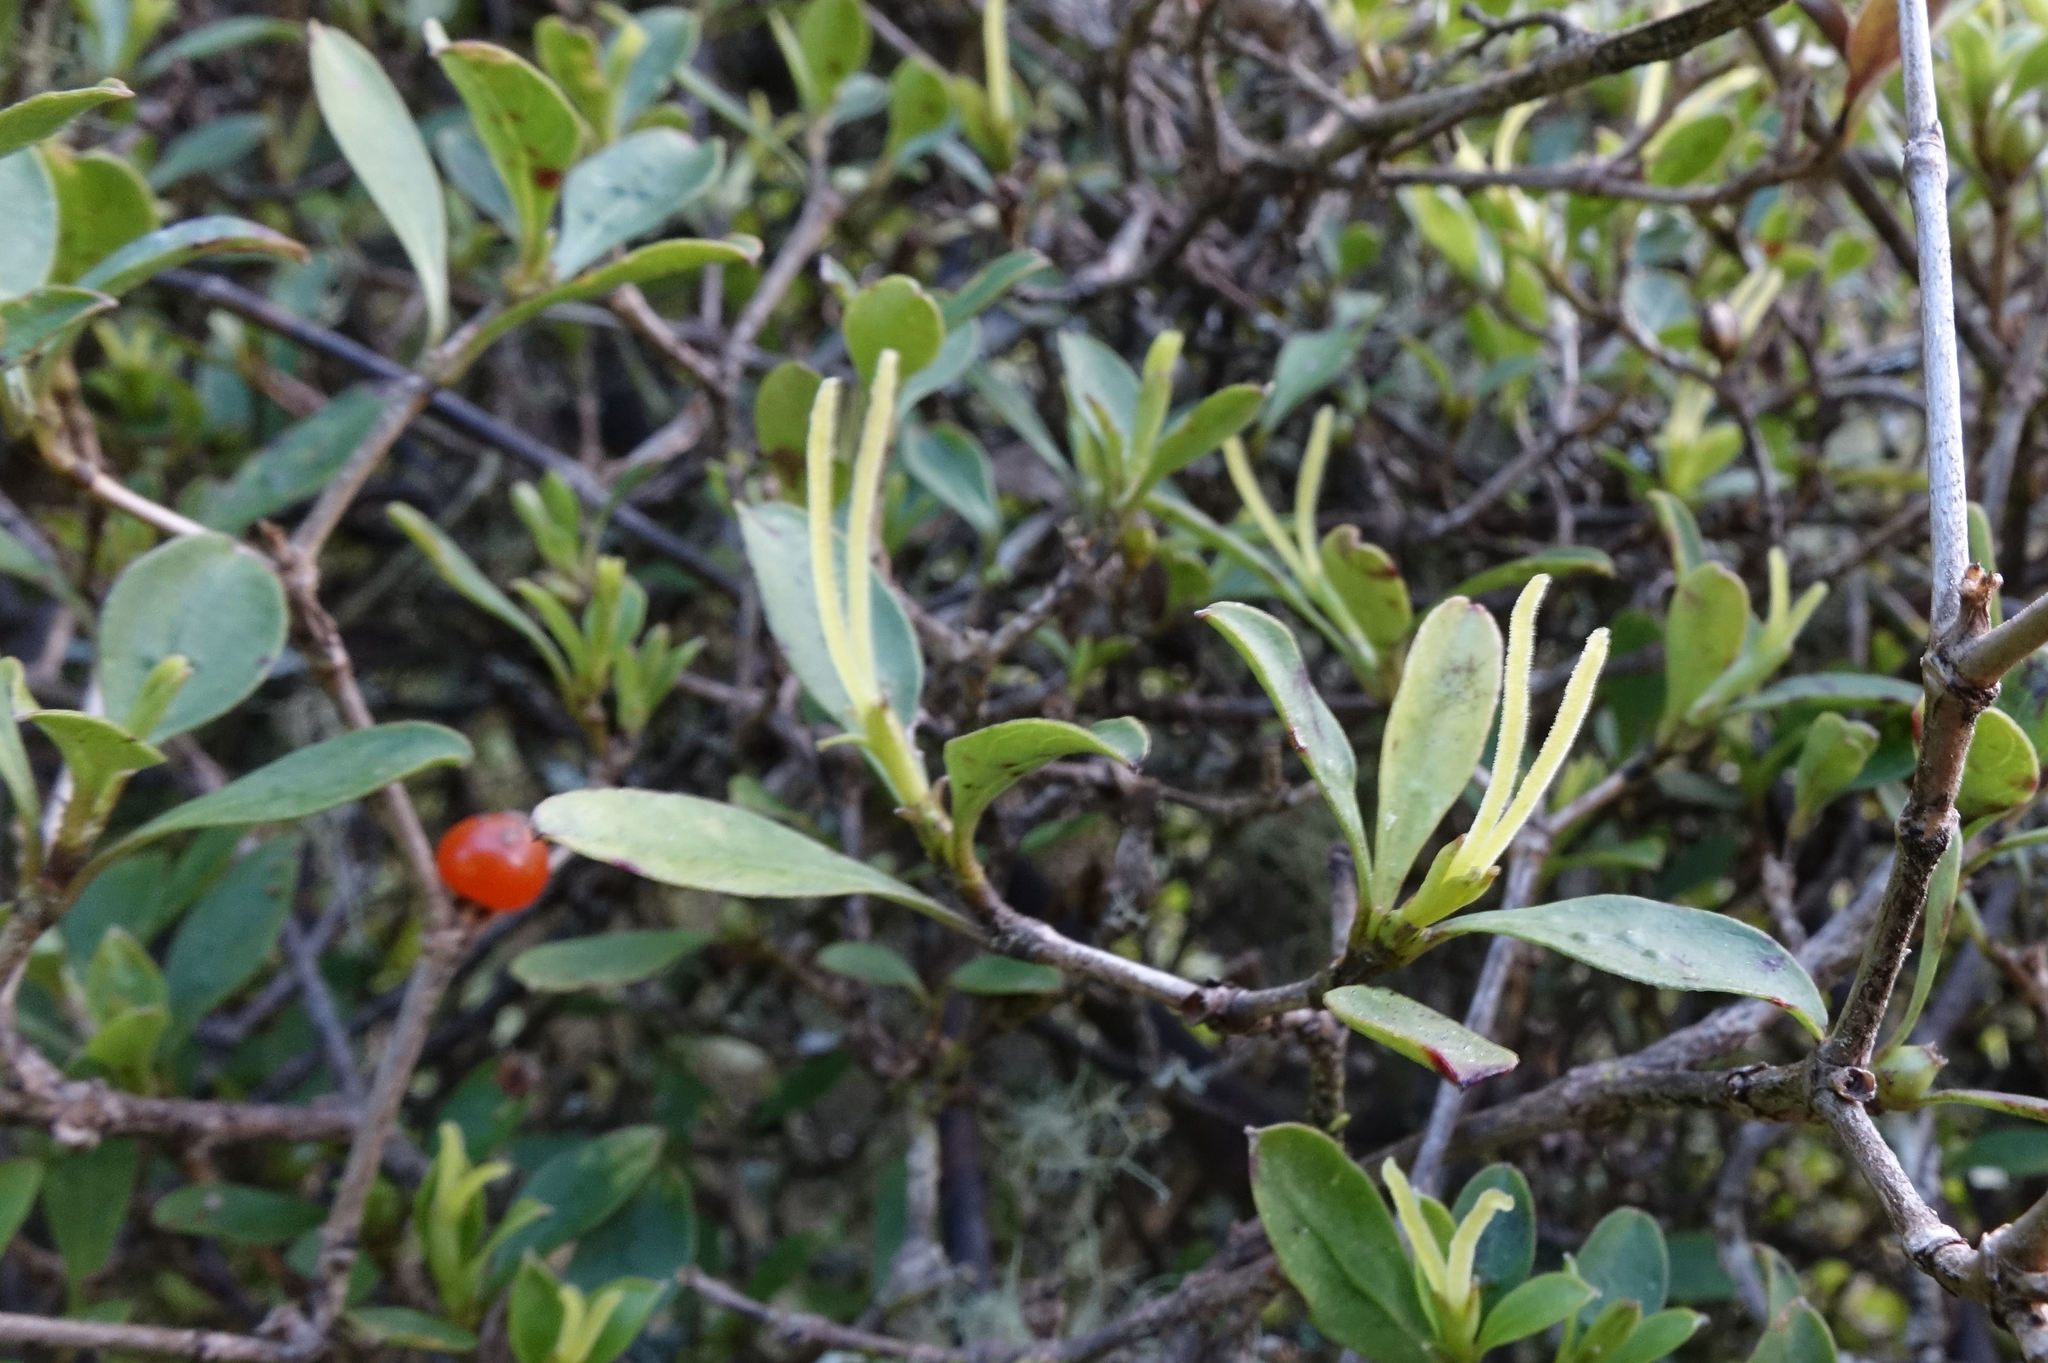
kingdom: Plantae
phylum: Tracheophyta
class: Magnoliopsida
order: Gentianales
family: Rubiaceae
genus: Coprosma
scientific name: Coprosma foetidissima
